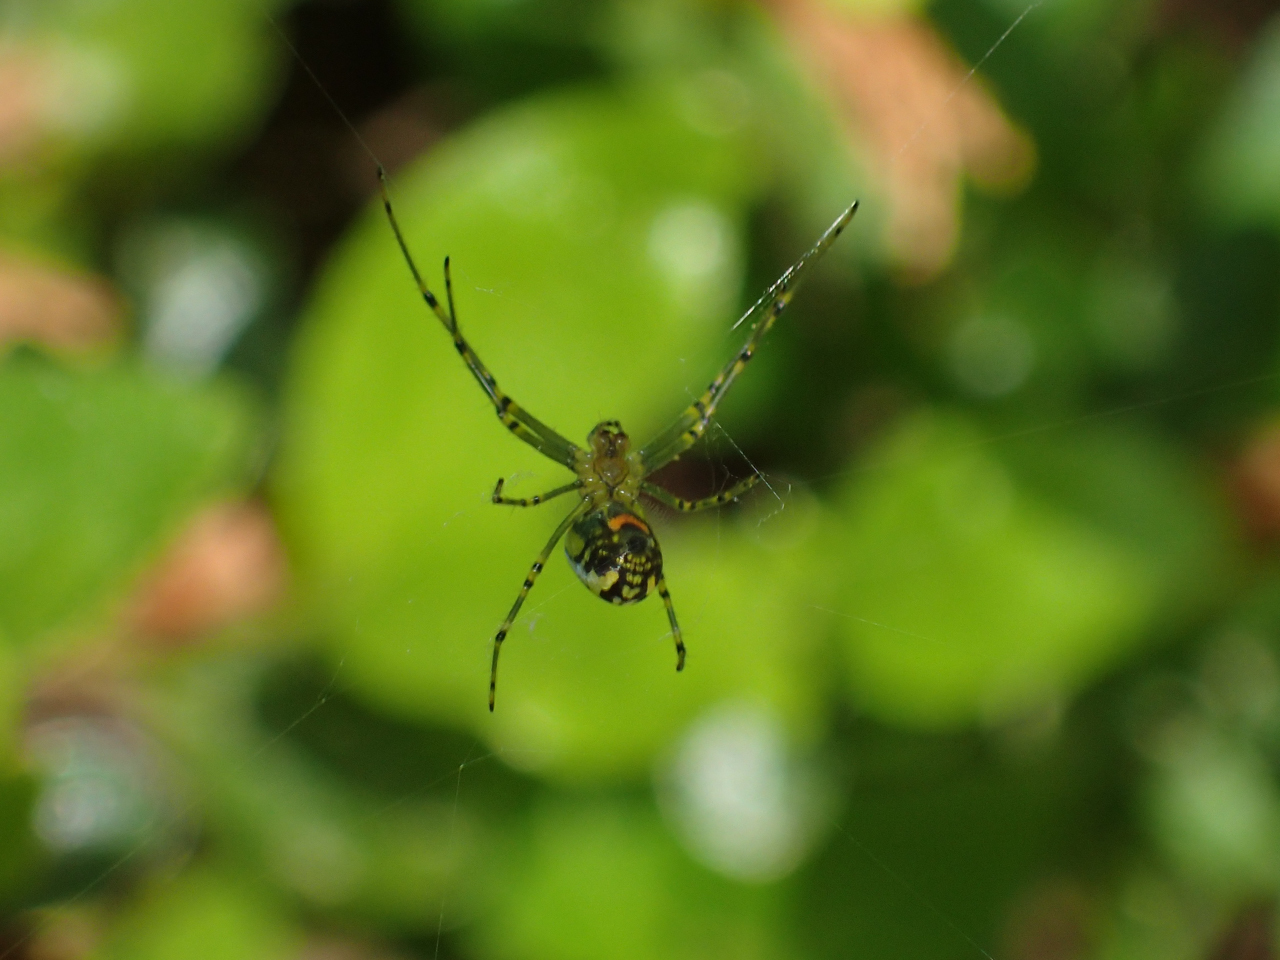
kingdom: Animalia
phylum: Arthropoda
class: Arachnida
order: Araneae
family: Tetragnathidae
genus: Leucauge
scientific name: Leucauge venusta
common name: Longjawed orb weavers
